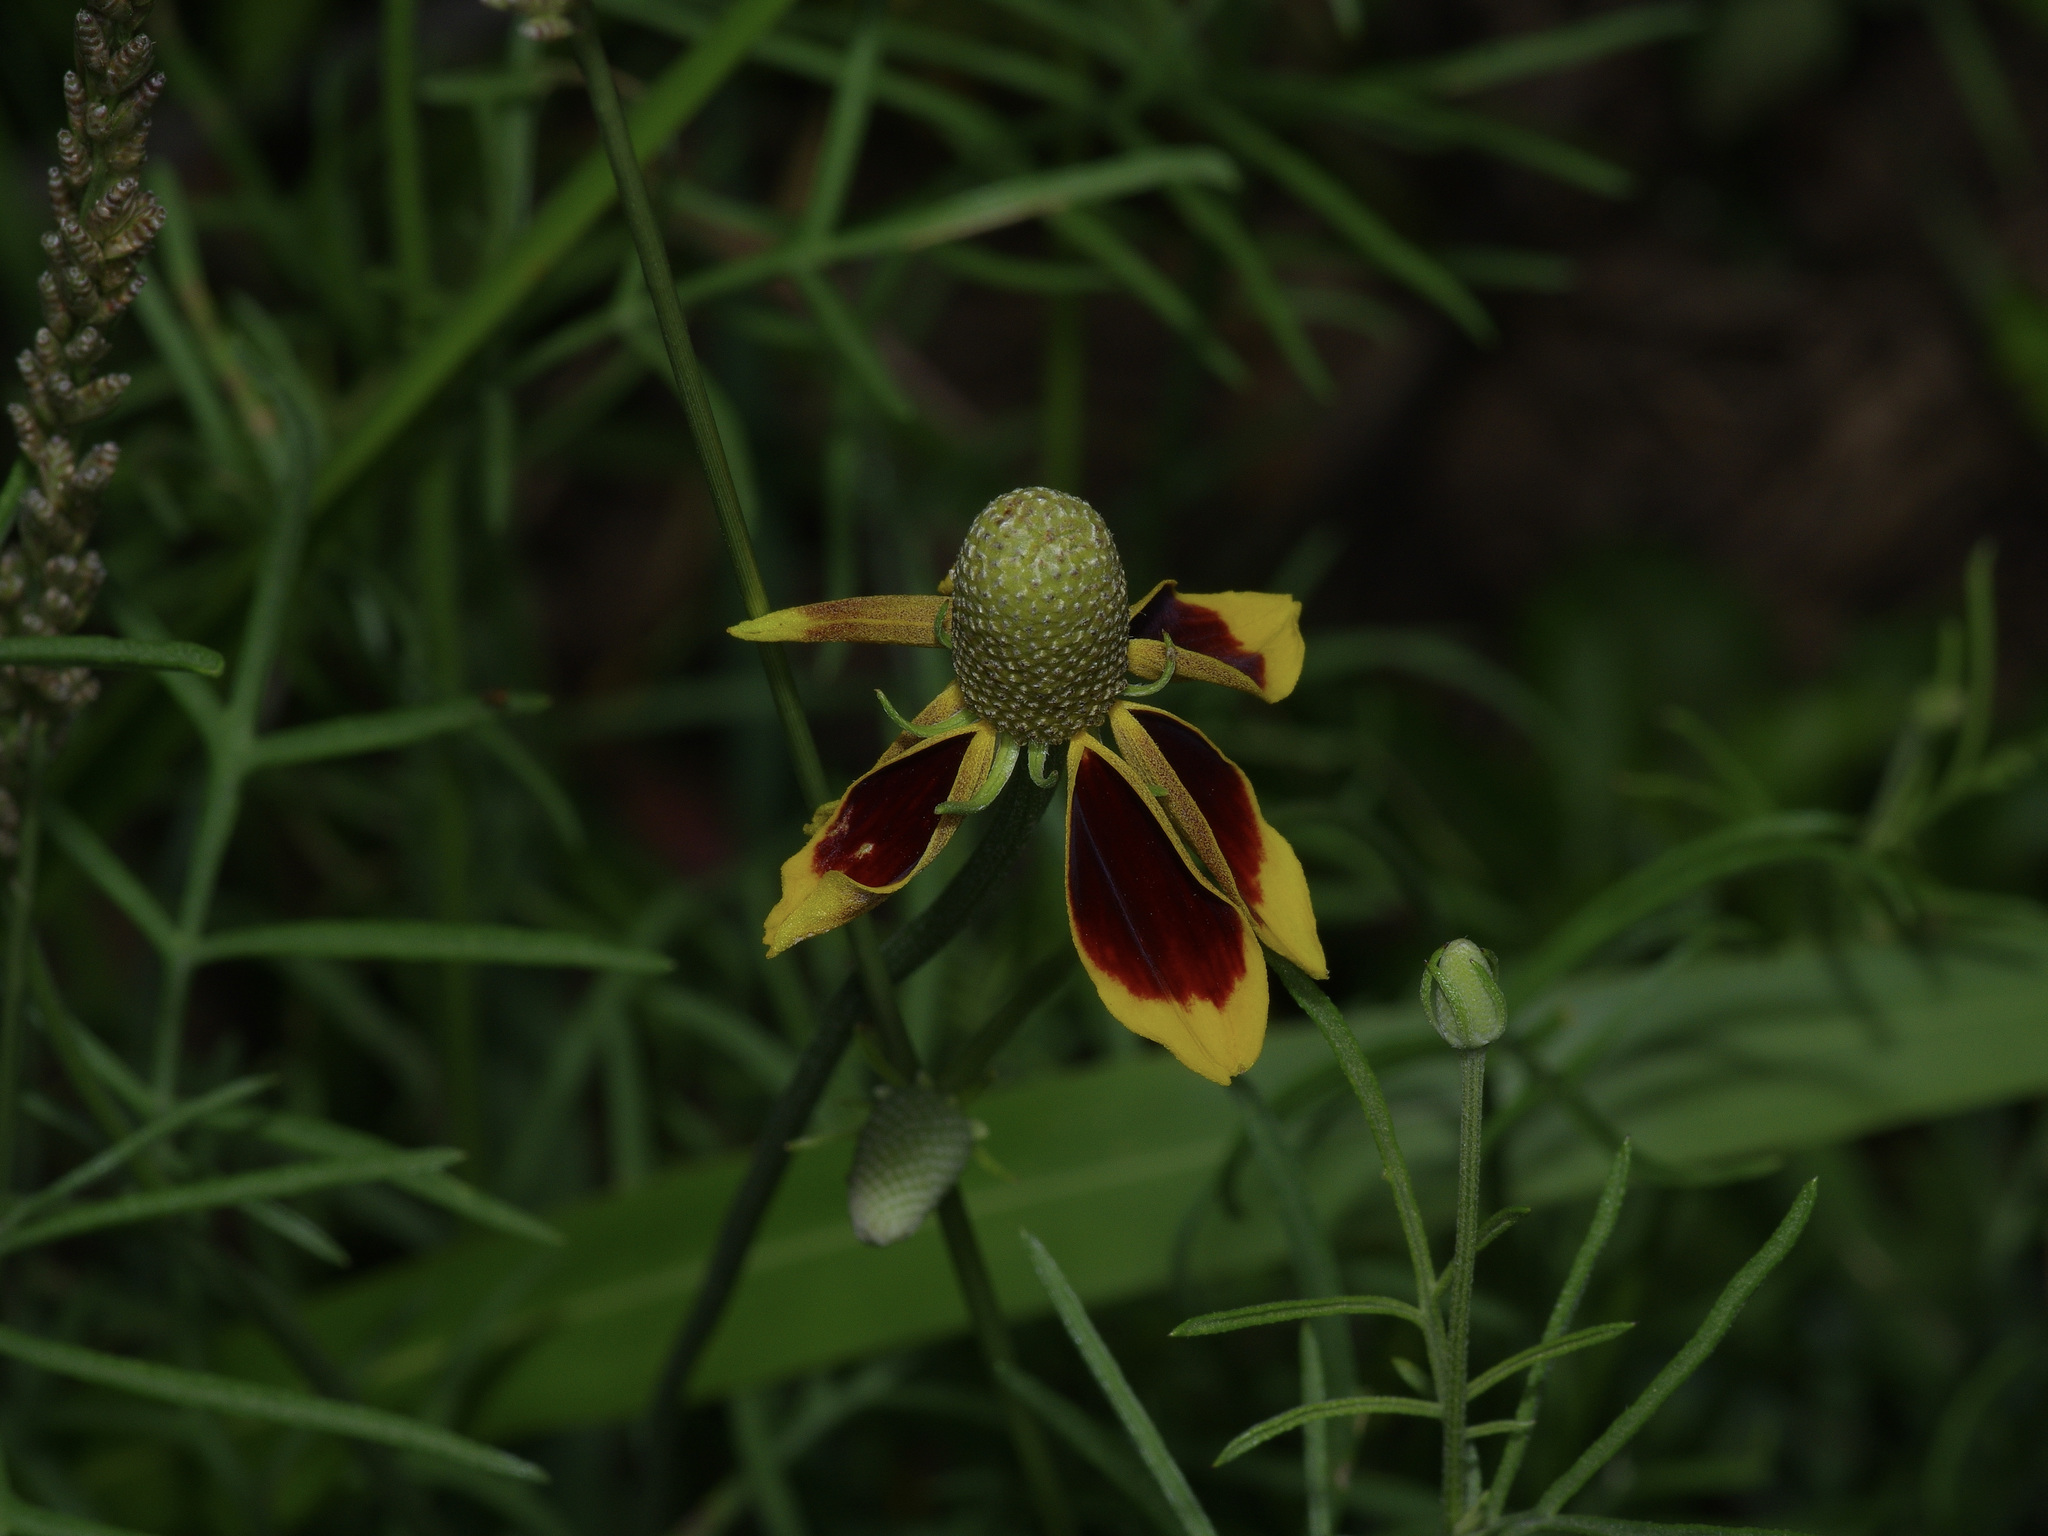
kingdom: Plantae
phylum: Tracheophyta
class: Magnoliopsida
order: Asterales
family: Asteraceae
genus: Ratibida
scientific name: Ratibida columnifera
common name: Prairie coneflower
